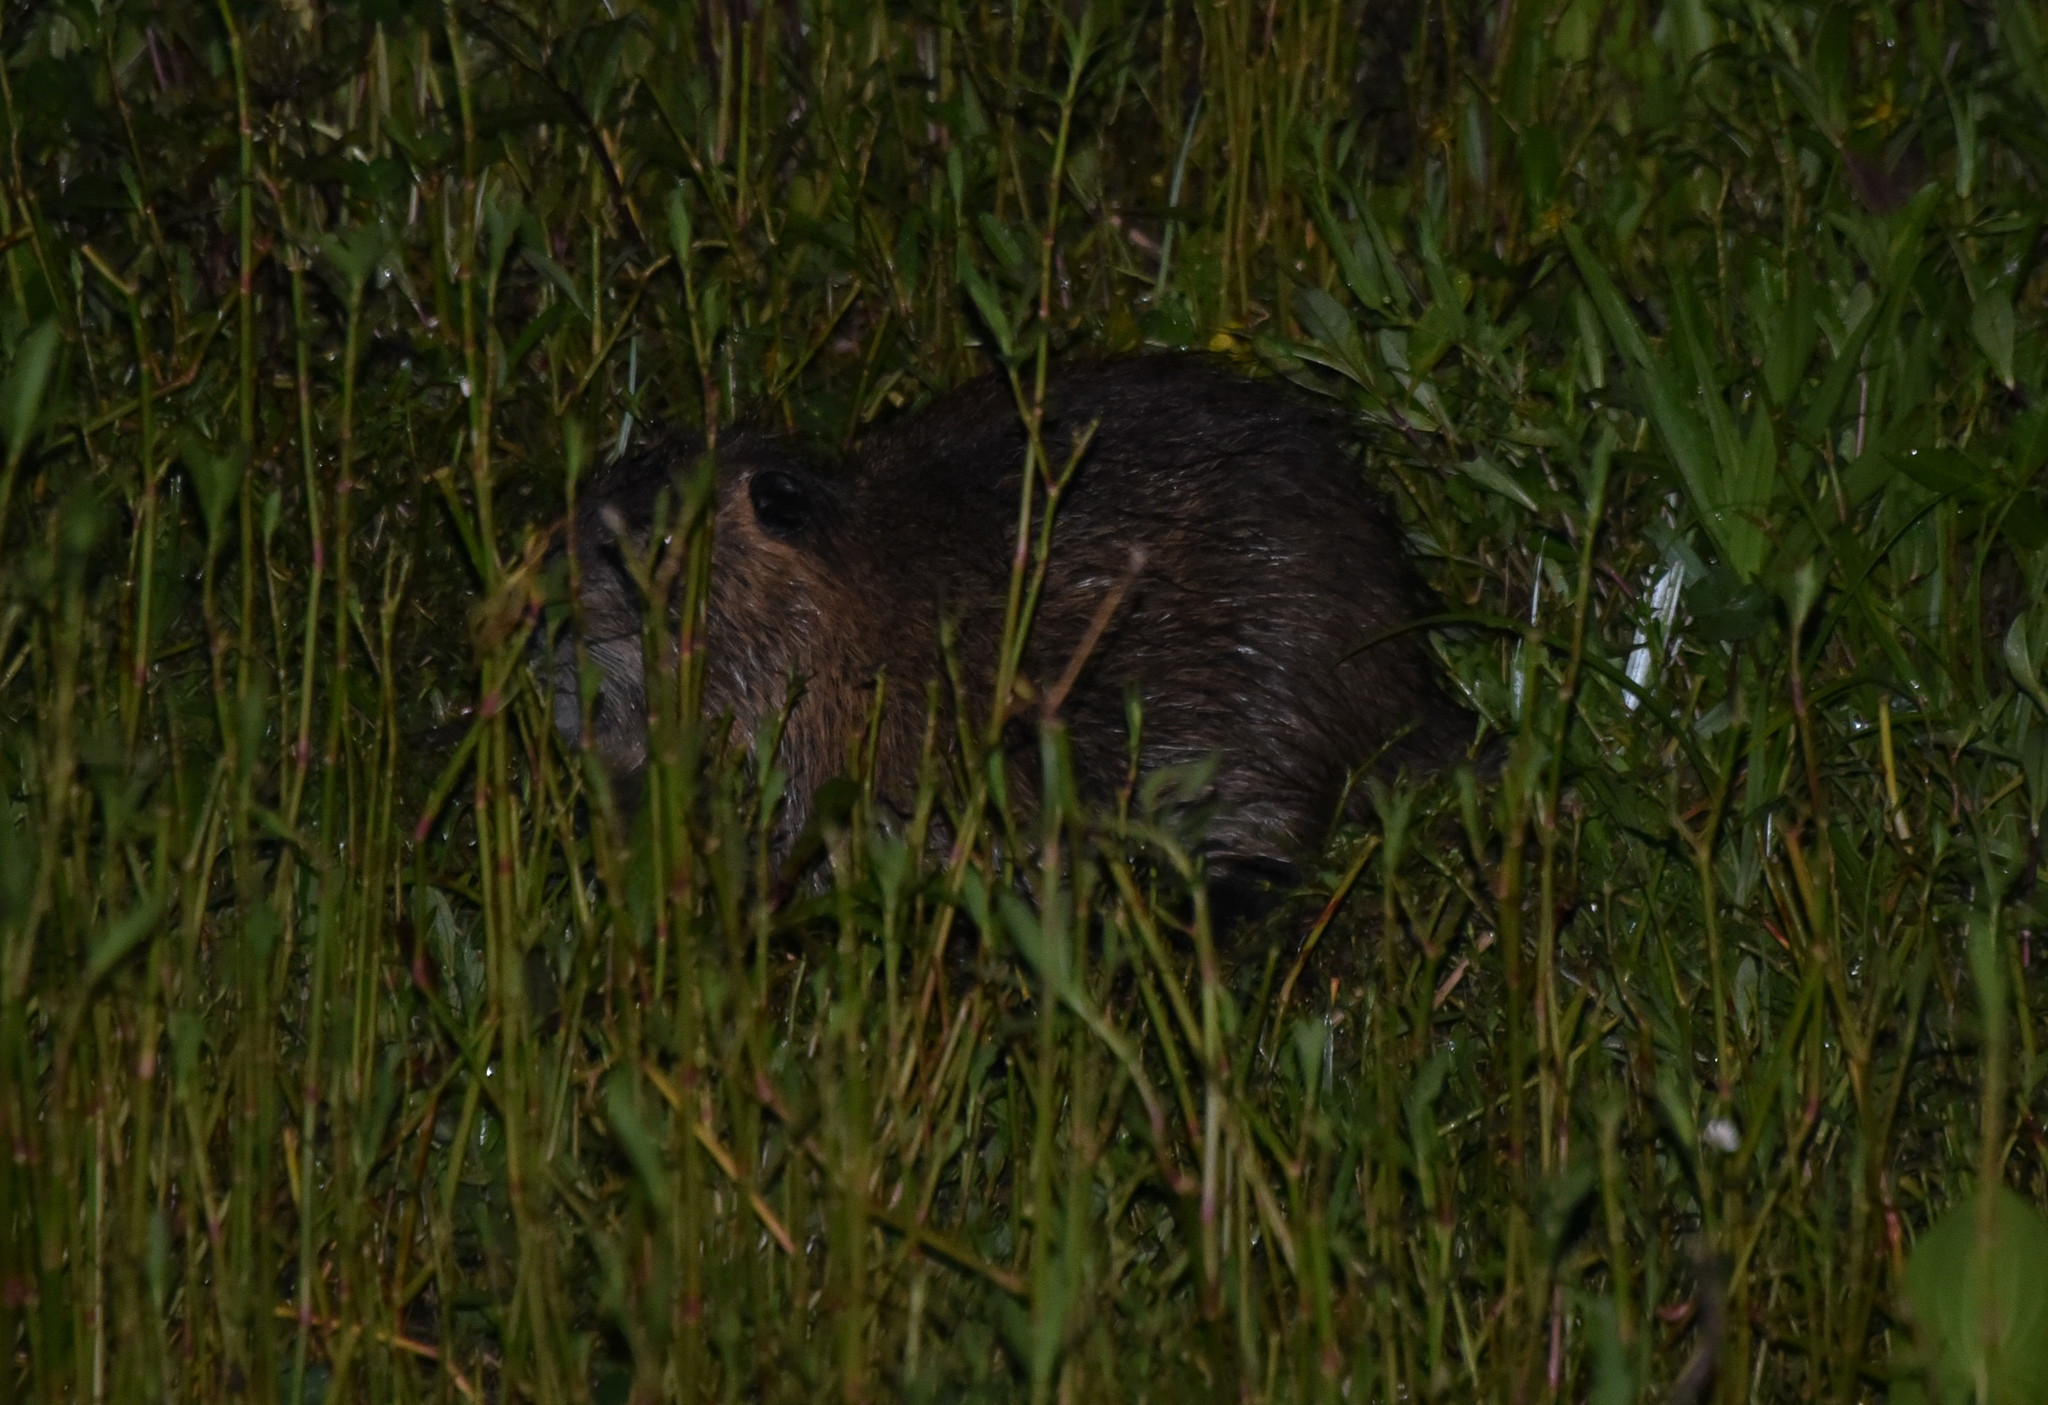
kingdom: Animalia
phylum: Chordata
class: Mammalia
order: Rodentia
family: Myocastoridae
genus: Myocastor
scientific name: Myocastor coypus
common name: Coypu
